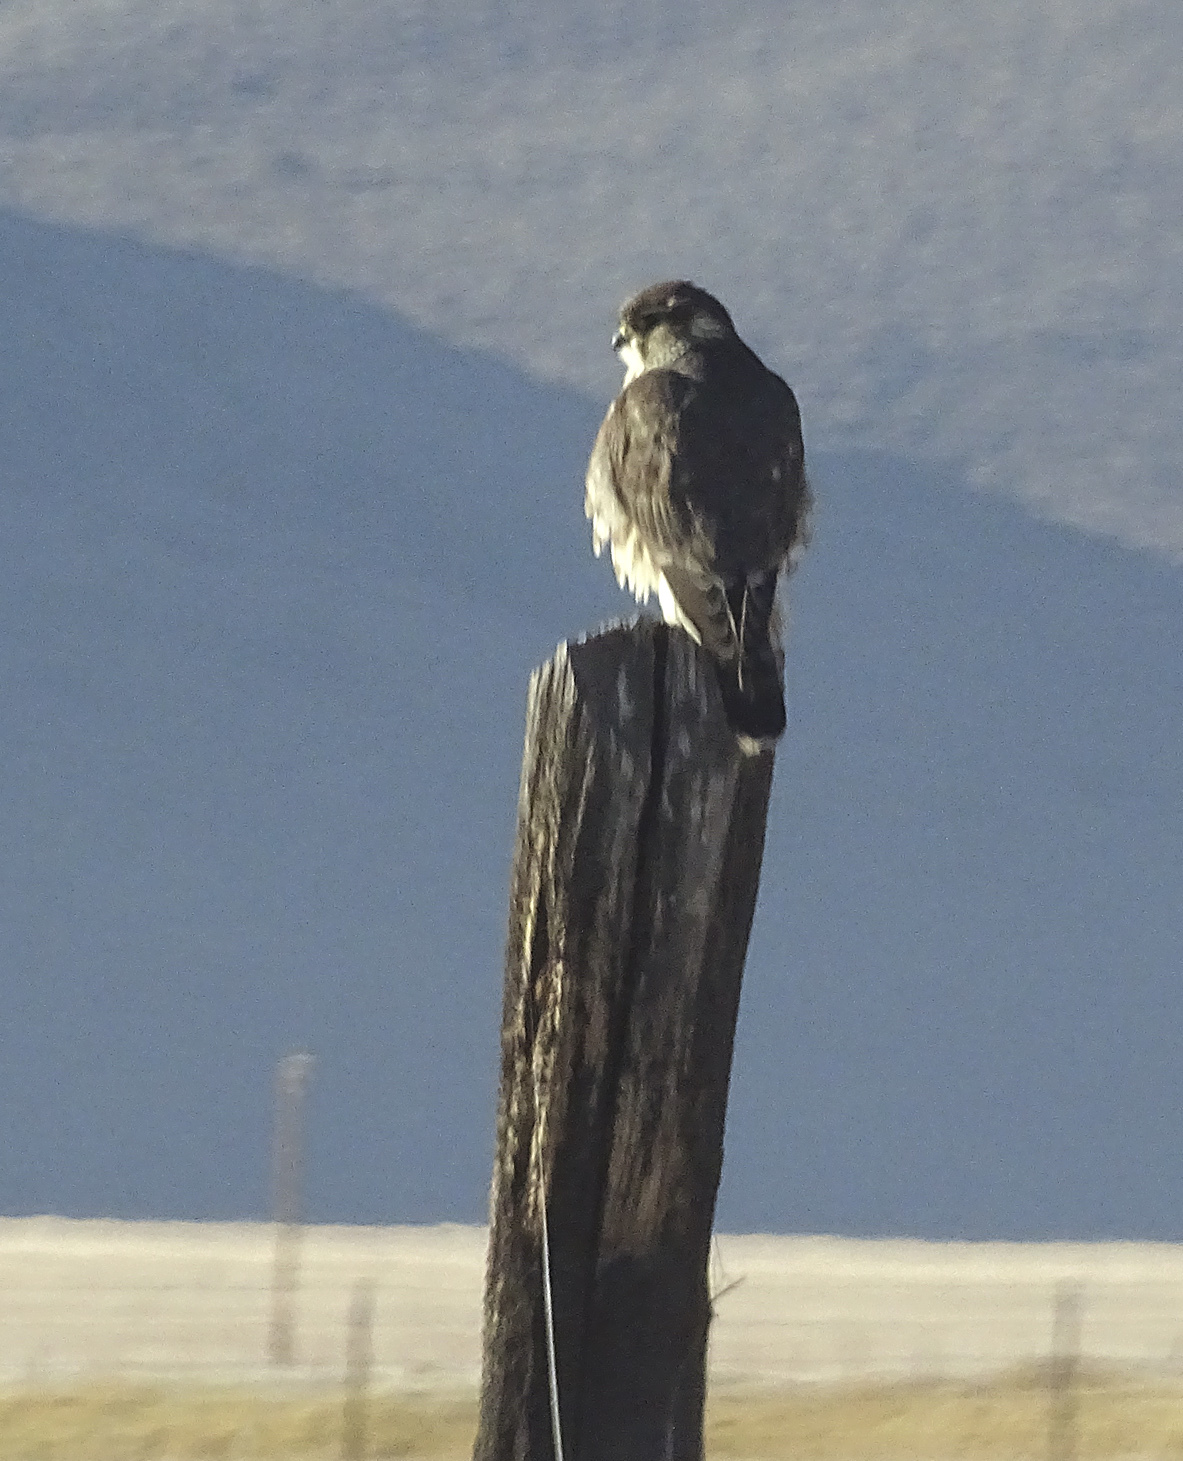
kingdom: Animalia
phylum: Chordata
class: Aves
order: Falconiformes
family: Falconidae
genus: Falco
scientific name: Falco columbarius
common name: Merlin
